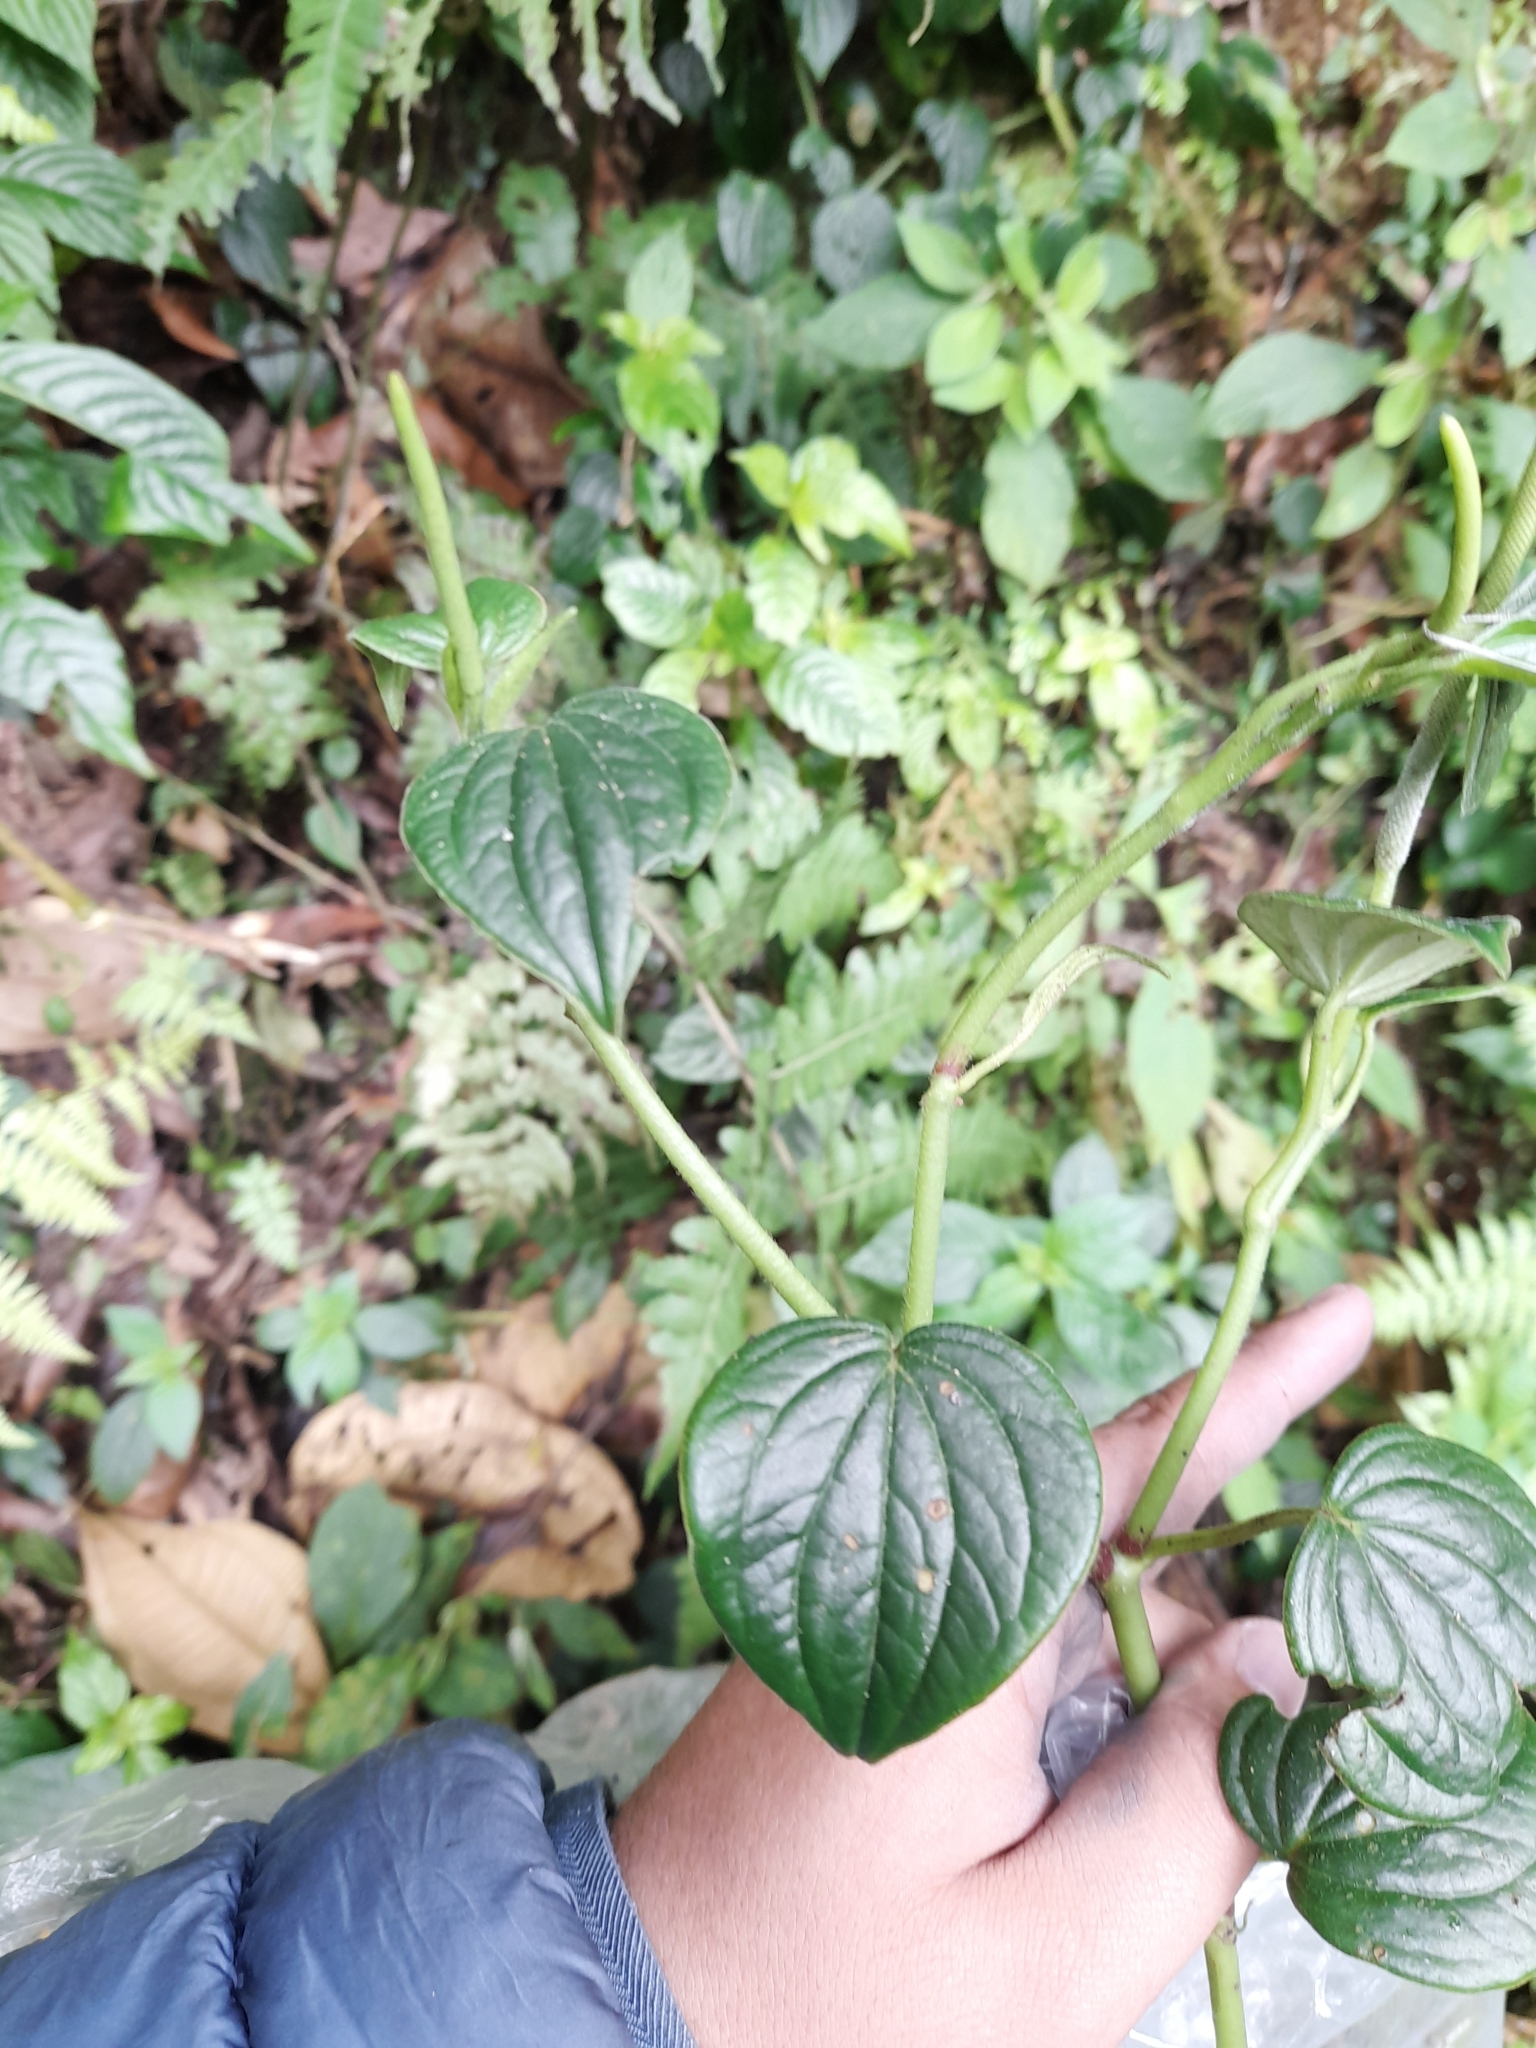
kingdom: Plantae
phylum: Tracheophyta
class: Magnoliopsida
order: Piperales
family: Piperaceae
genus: Peperomia
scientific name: Peperomia peltoidea
